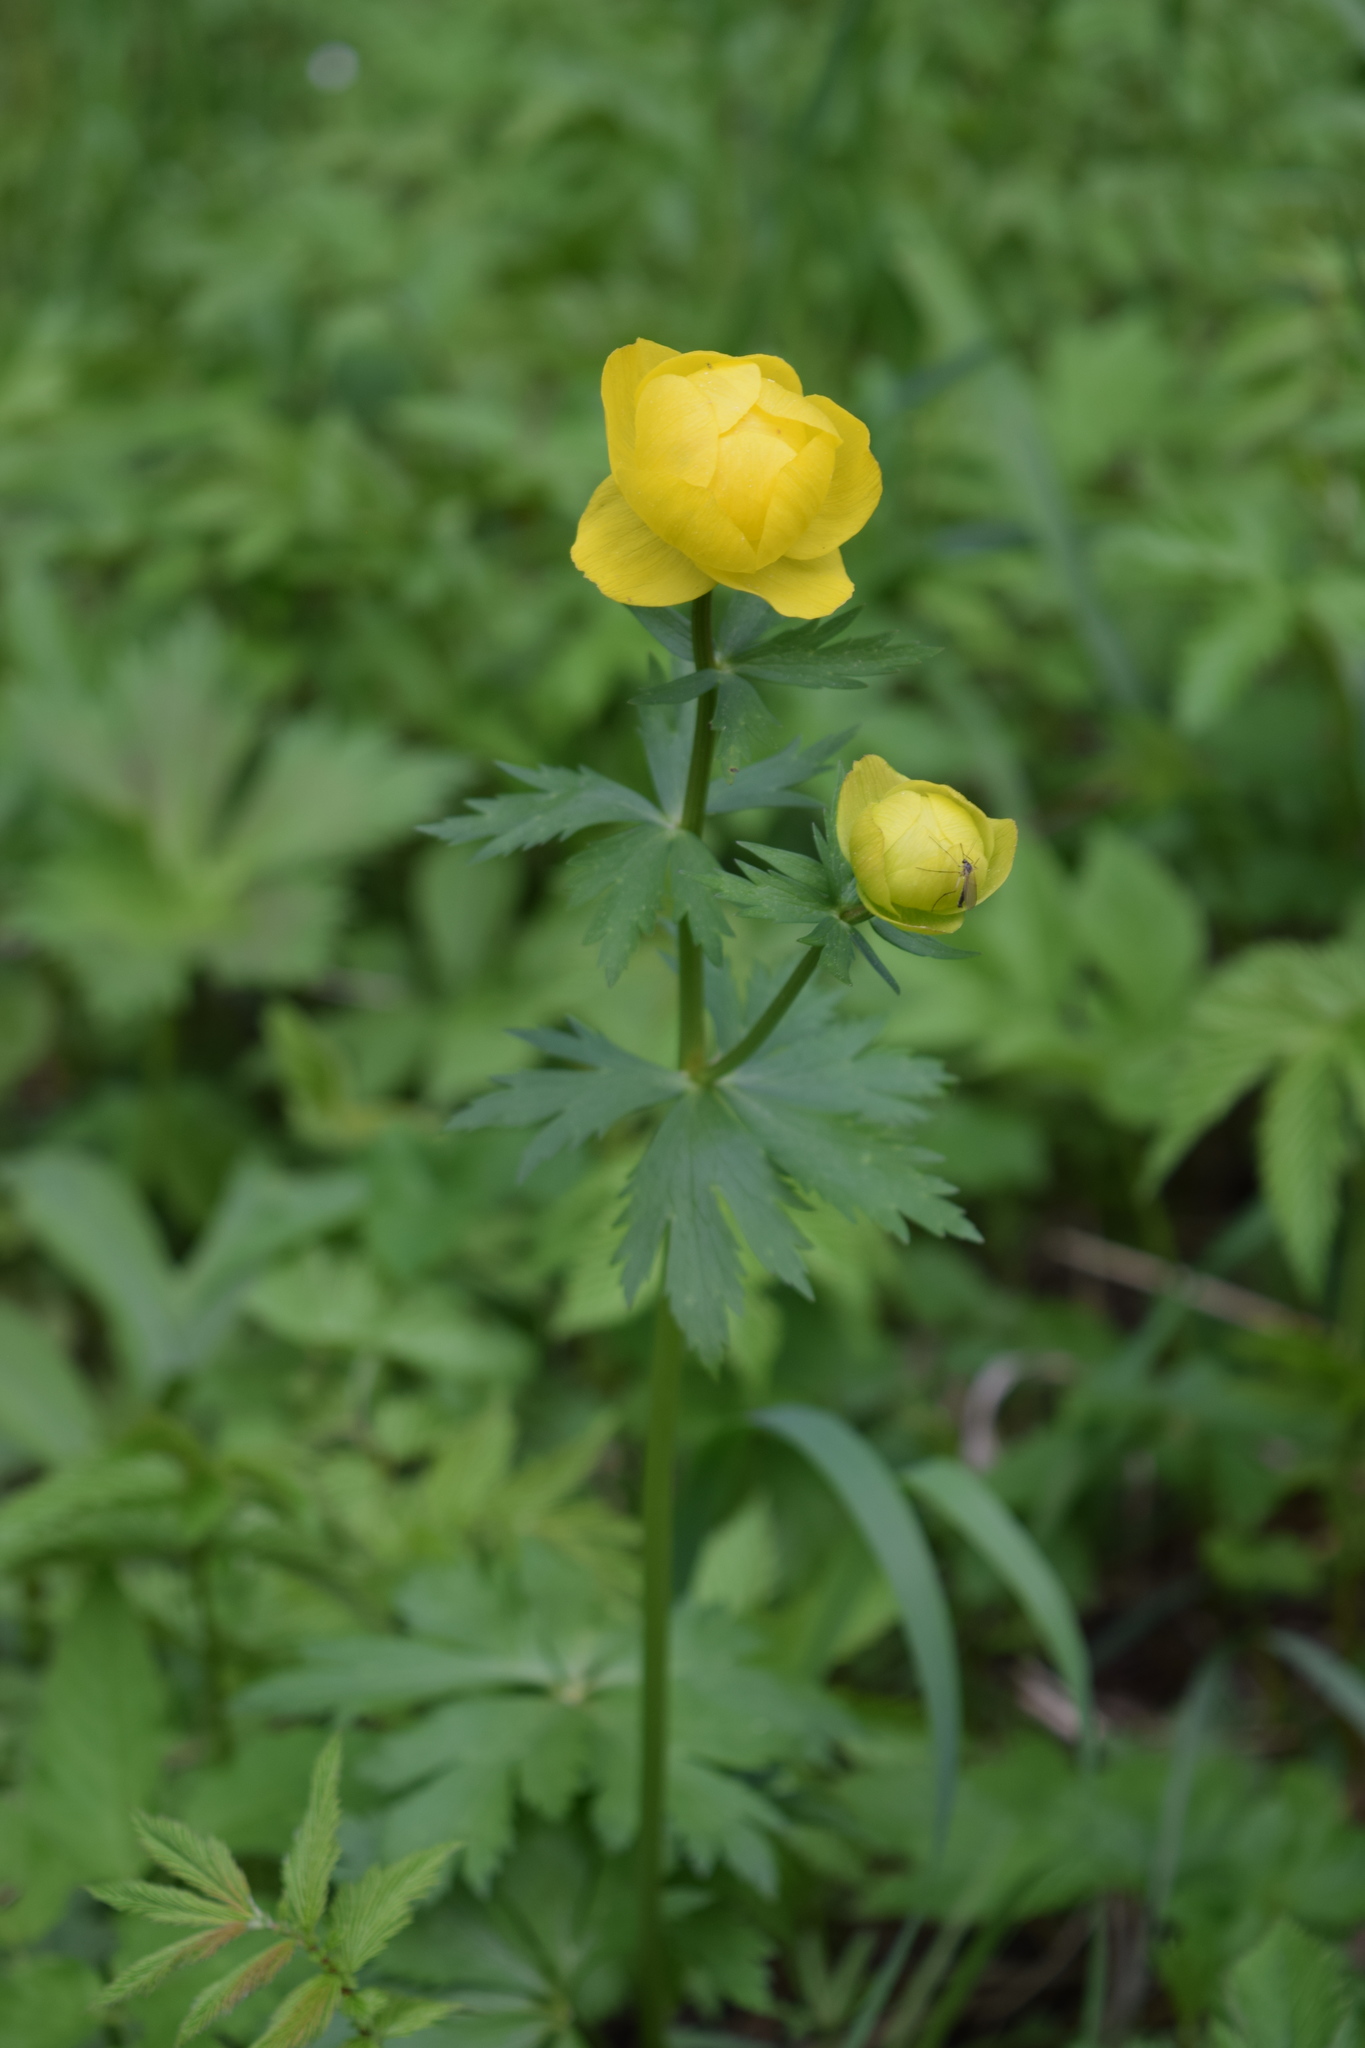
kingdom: Plantae
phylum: Tracheophyta
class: Magnoliopsida
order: Ranunculales
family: Ranunculaceae
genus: Trollius
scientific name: Trollius europaeus
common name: European globeflower
